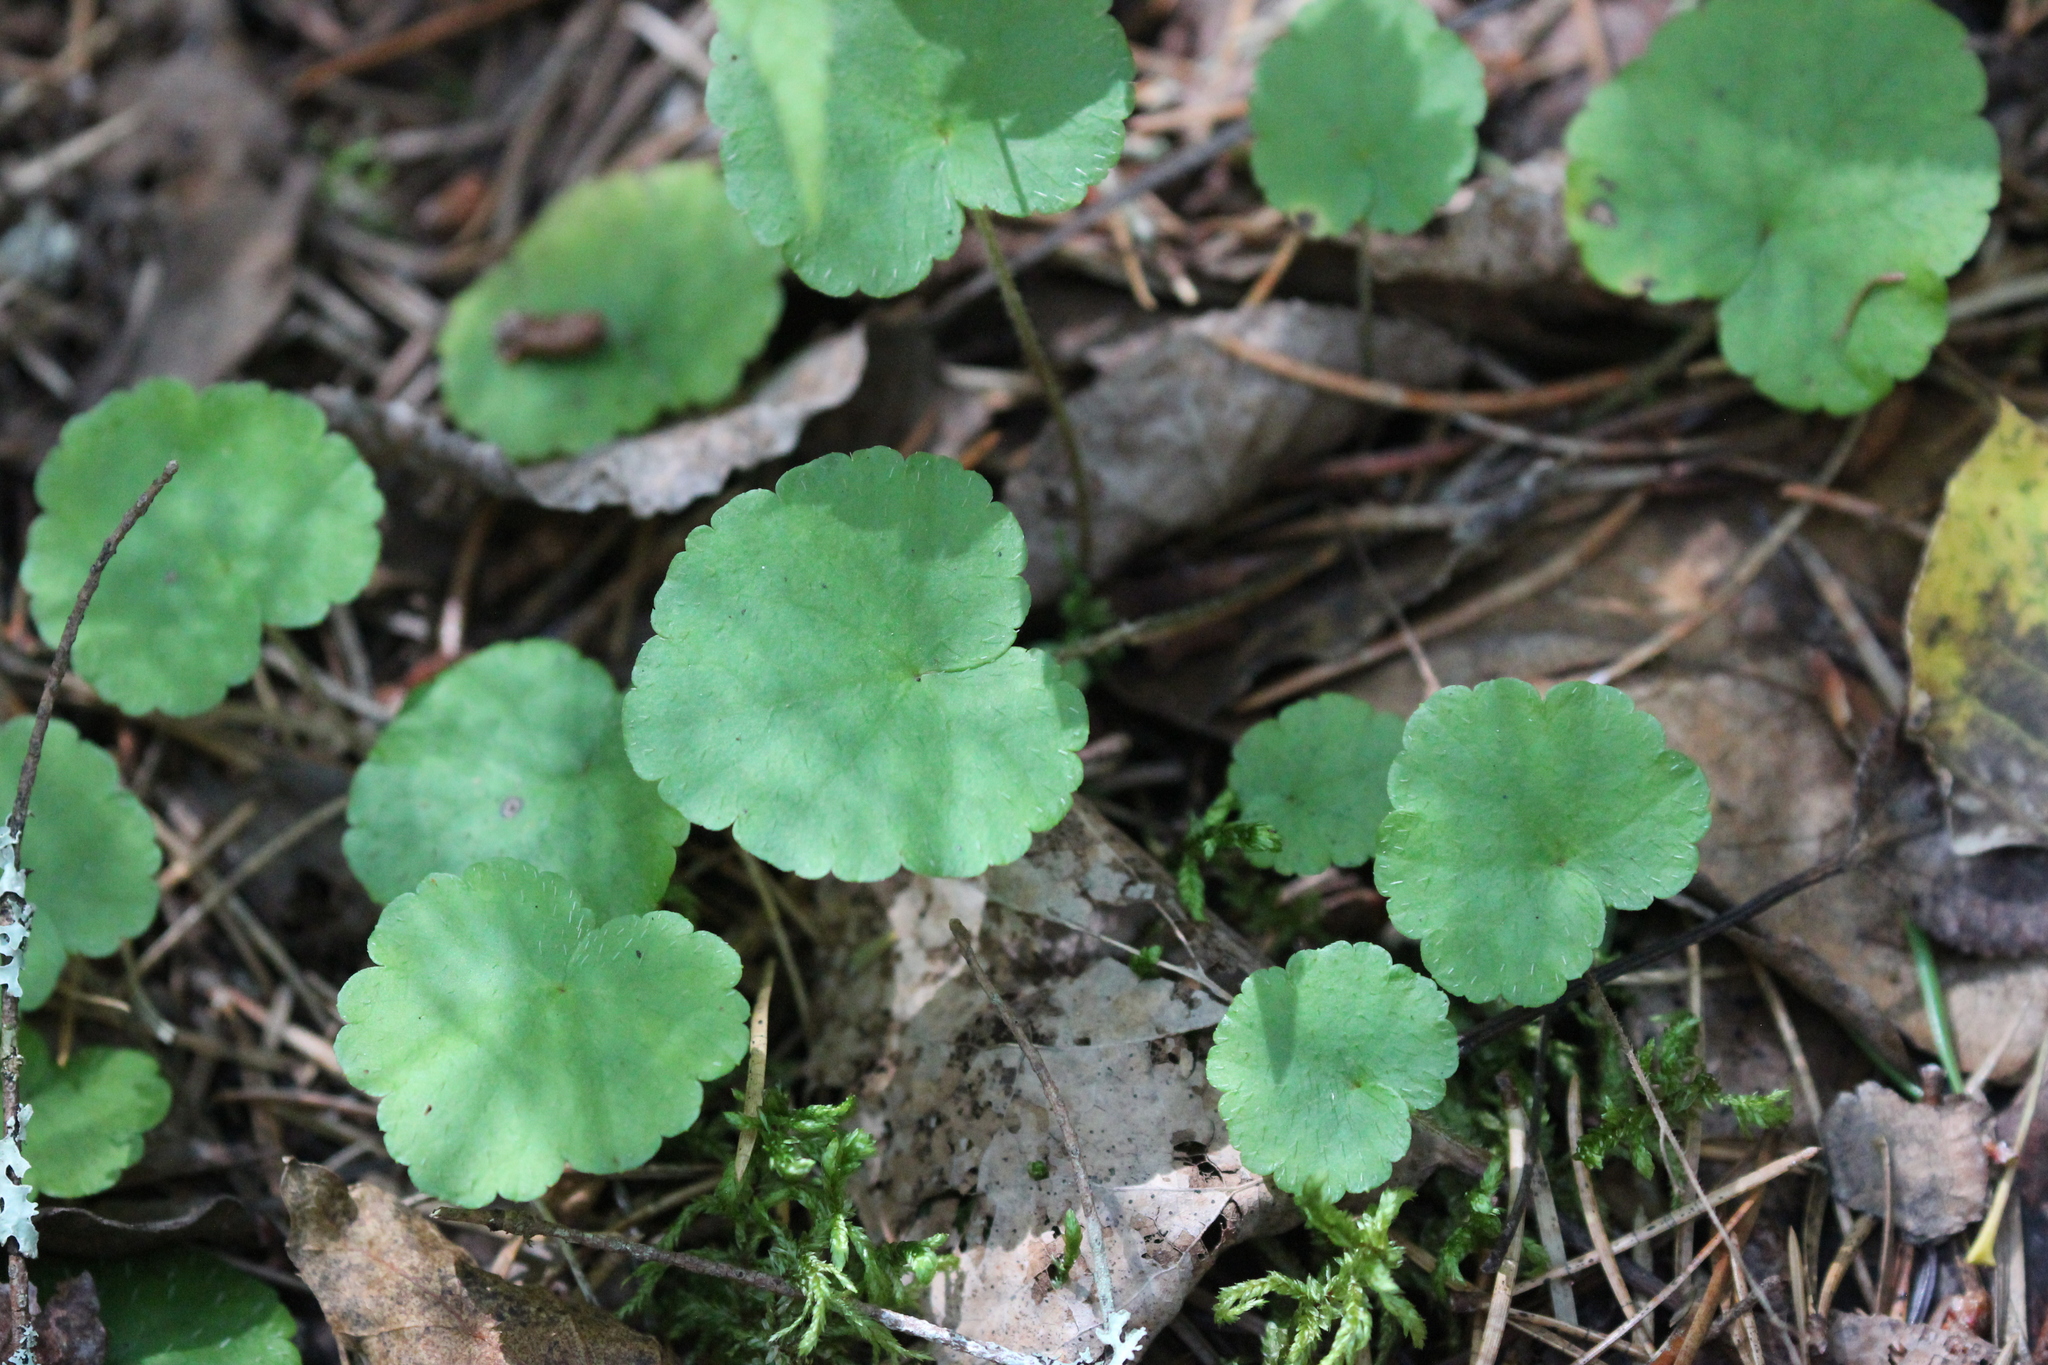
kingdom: Plantae
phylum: Tracheophyta
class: Magnoliopsida
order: Saxifragales
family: Saxifragaceae
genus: Mitella
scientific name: Mitella nuda
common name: Bare-stemmed bishop's-cap
